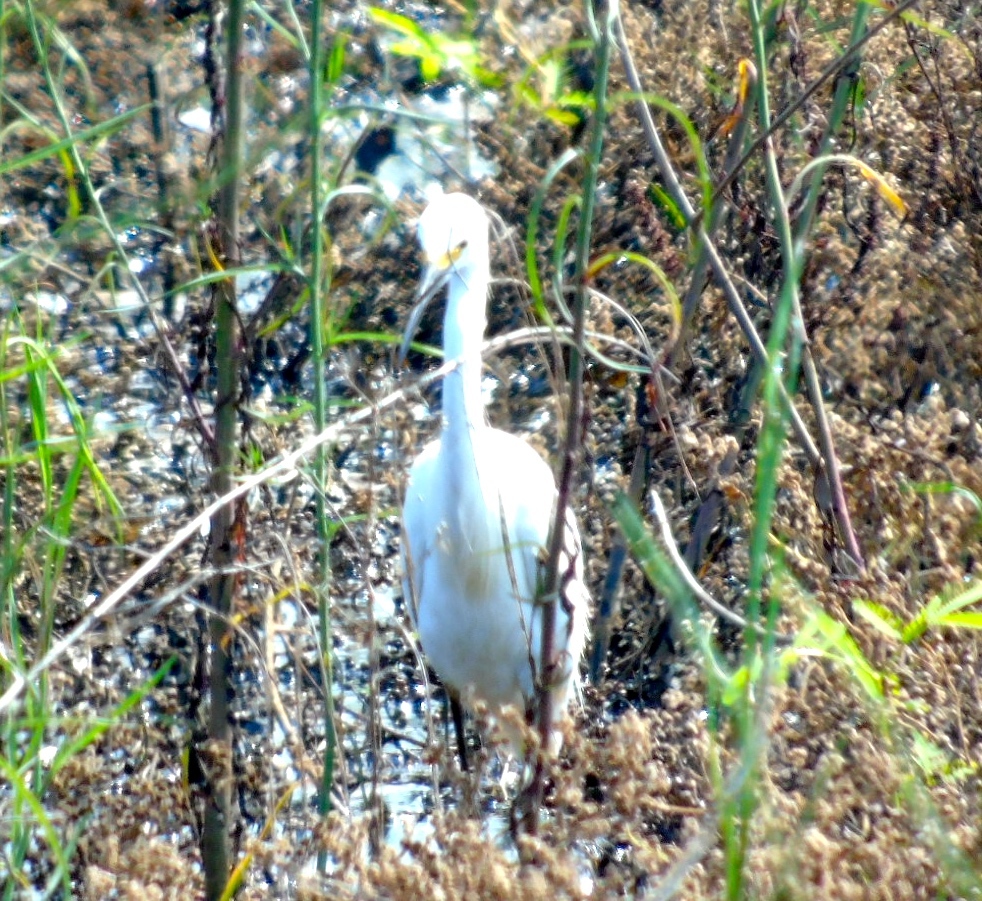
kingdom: Animalia
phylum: Chordata
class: Aves
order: Pelecaniformes
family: Ardeidae
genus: Egretta
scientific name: Egretta thula
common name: Snowy egret
